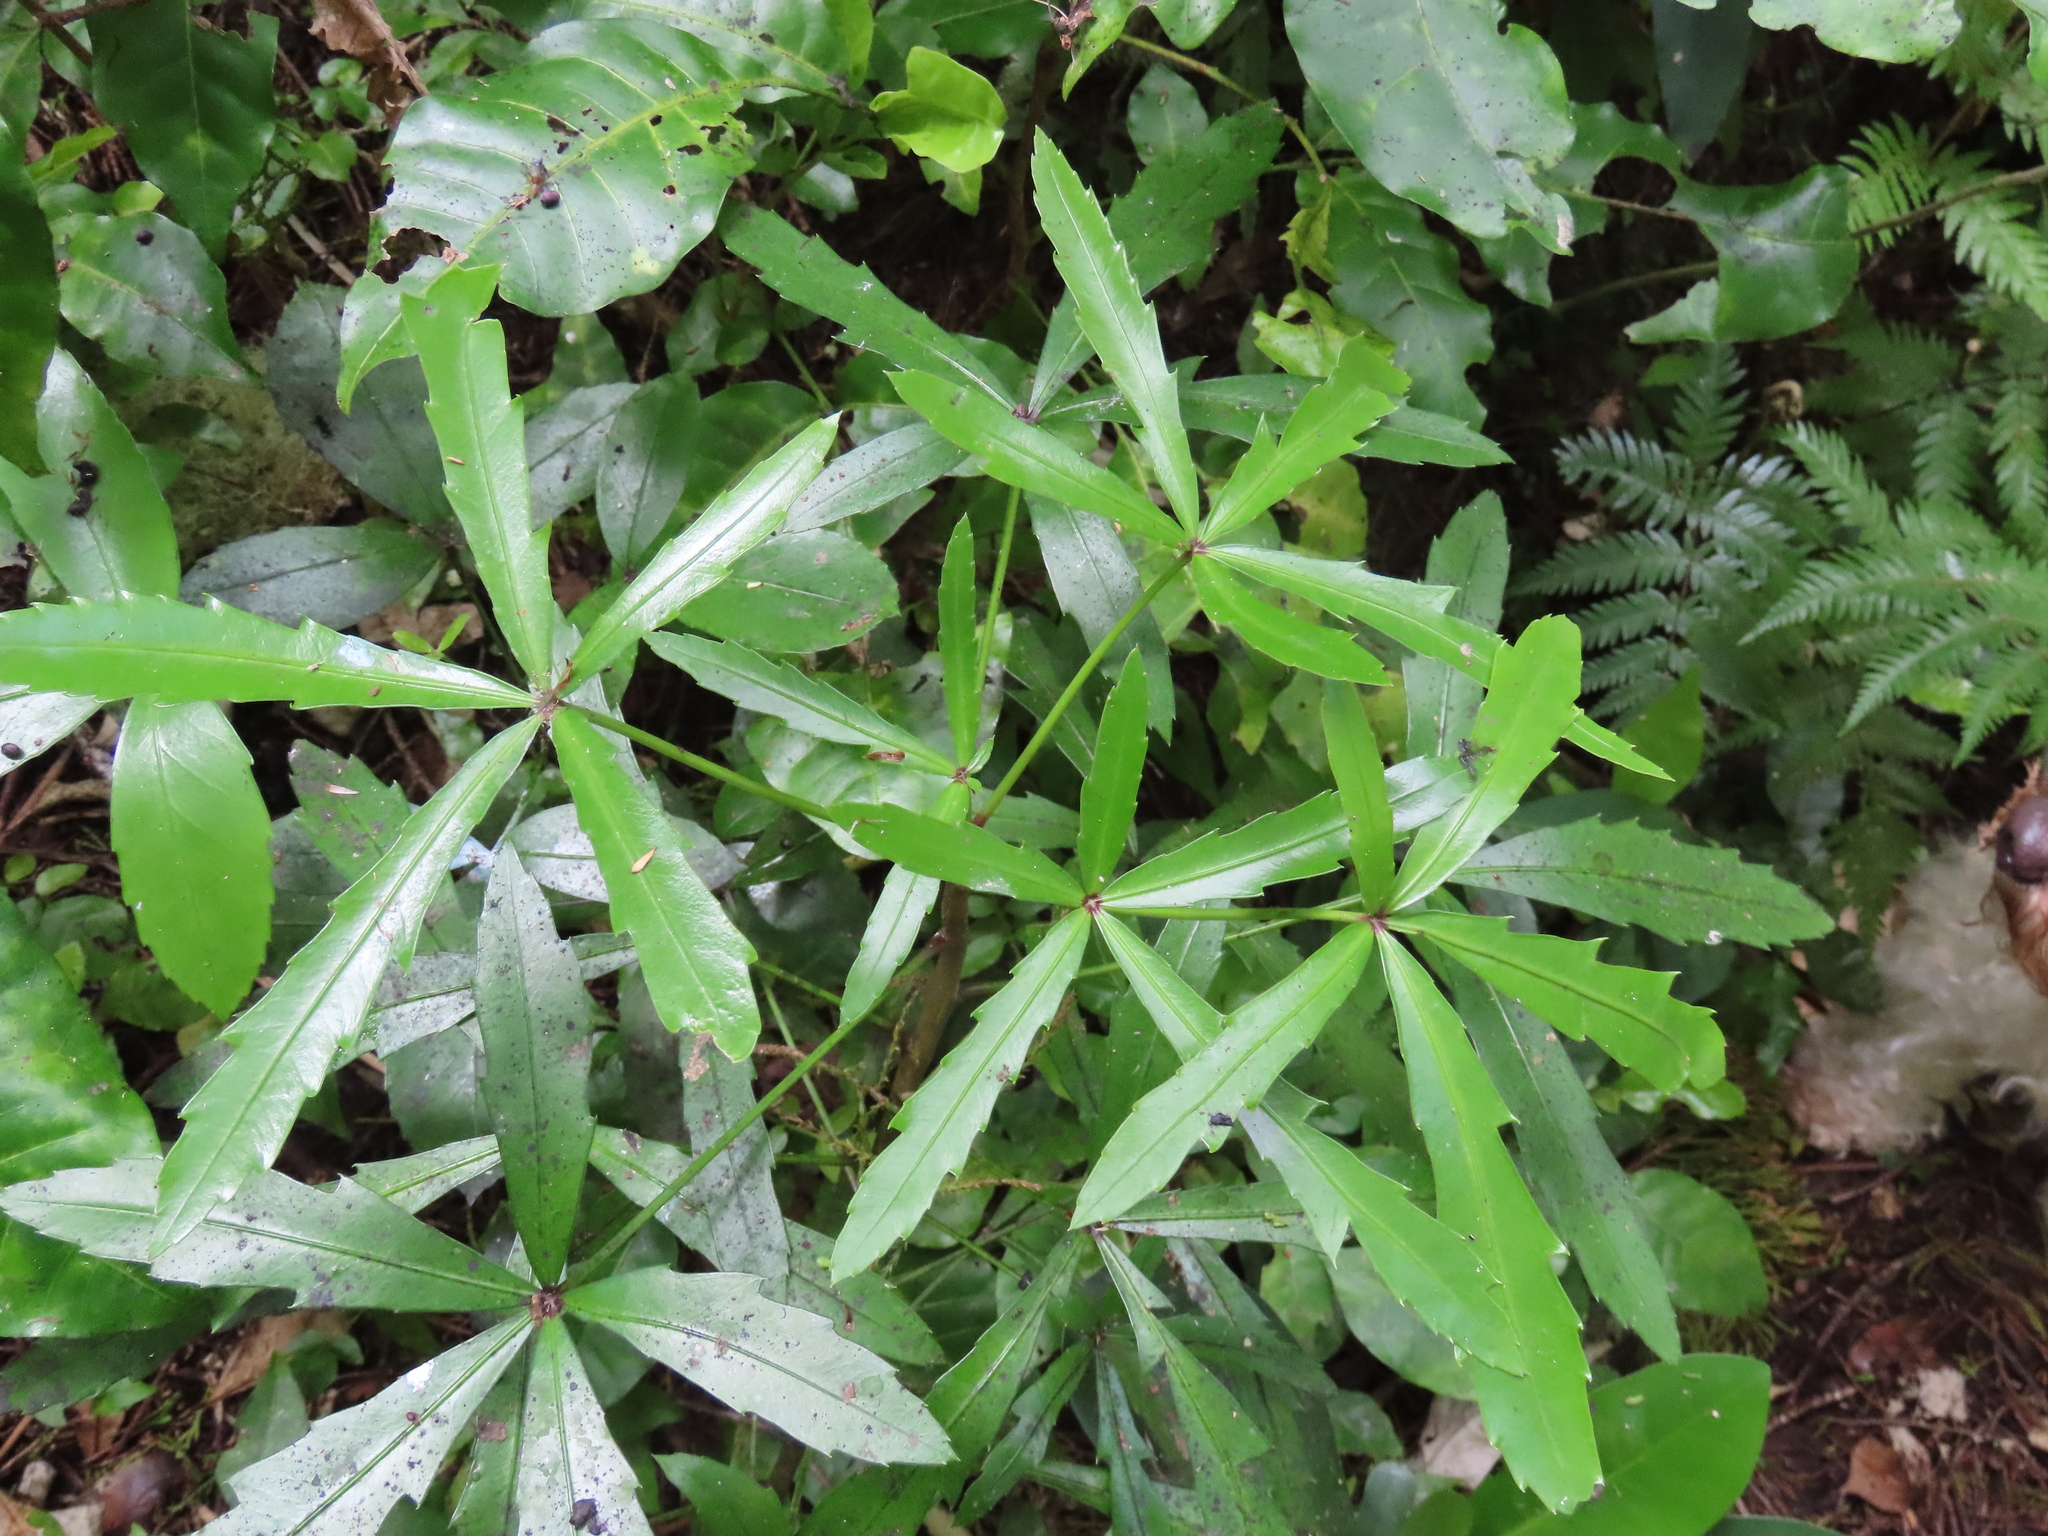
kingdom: Plantae
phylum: Tracheophyta
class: Magnoliopsida
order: Apiales
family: Araliaceae
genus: Pseudopanax
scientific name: Pseudopanax
